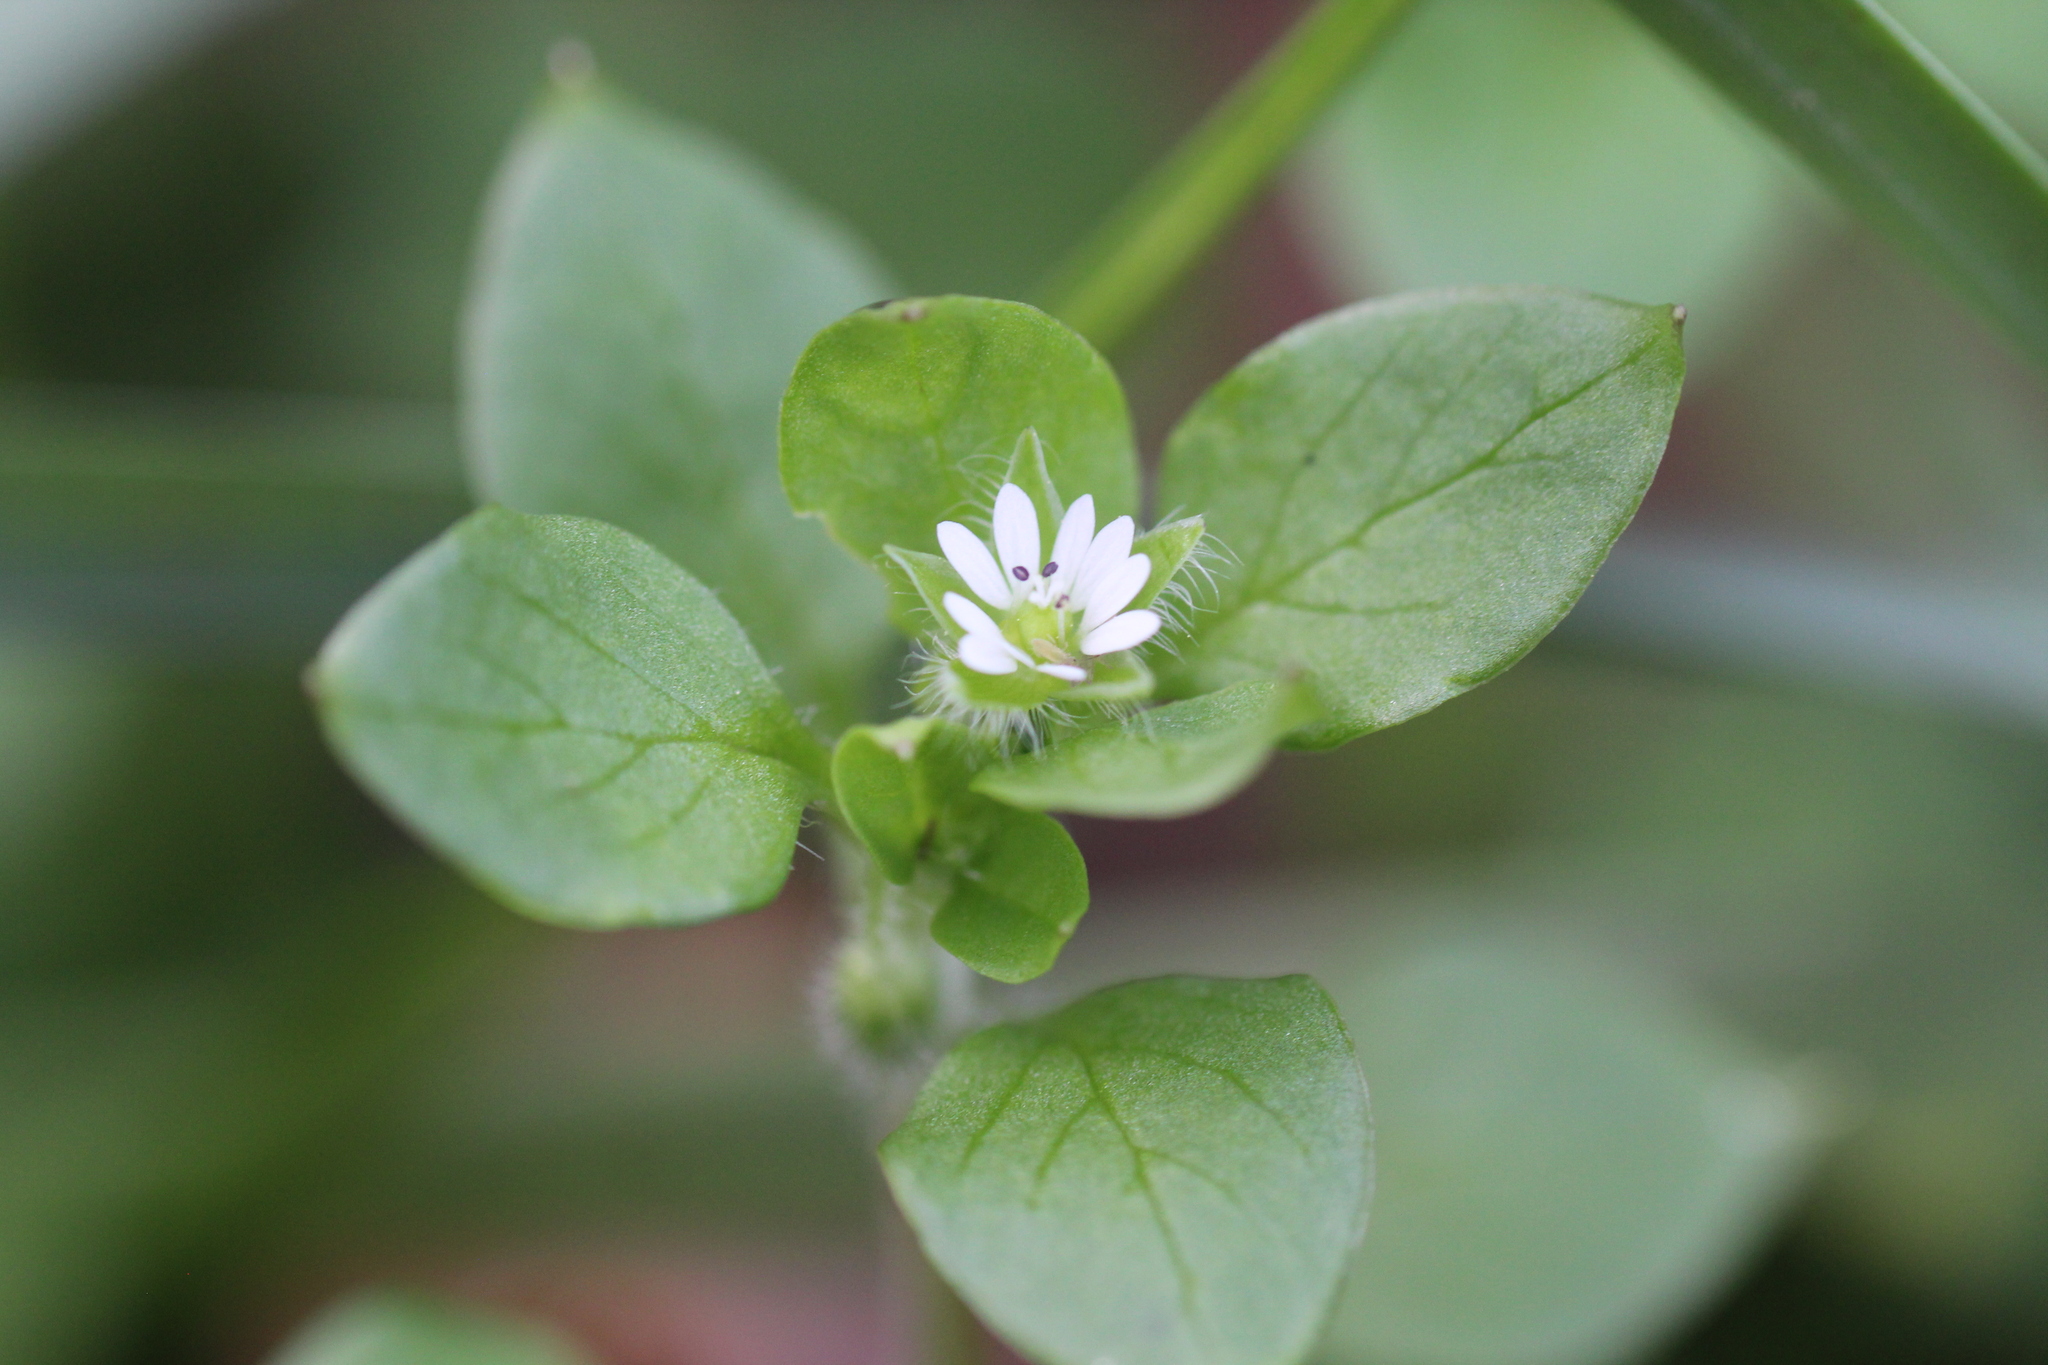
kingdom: Plantae
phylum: Tracheophyta
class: Magnoliopsida
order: Caryophyllales
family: Caryophyllaceae
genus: Stellaria
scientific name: Stellaria media
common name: Common chickweed
